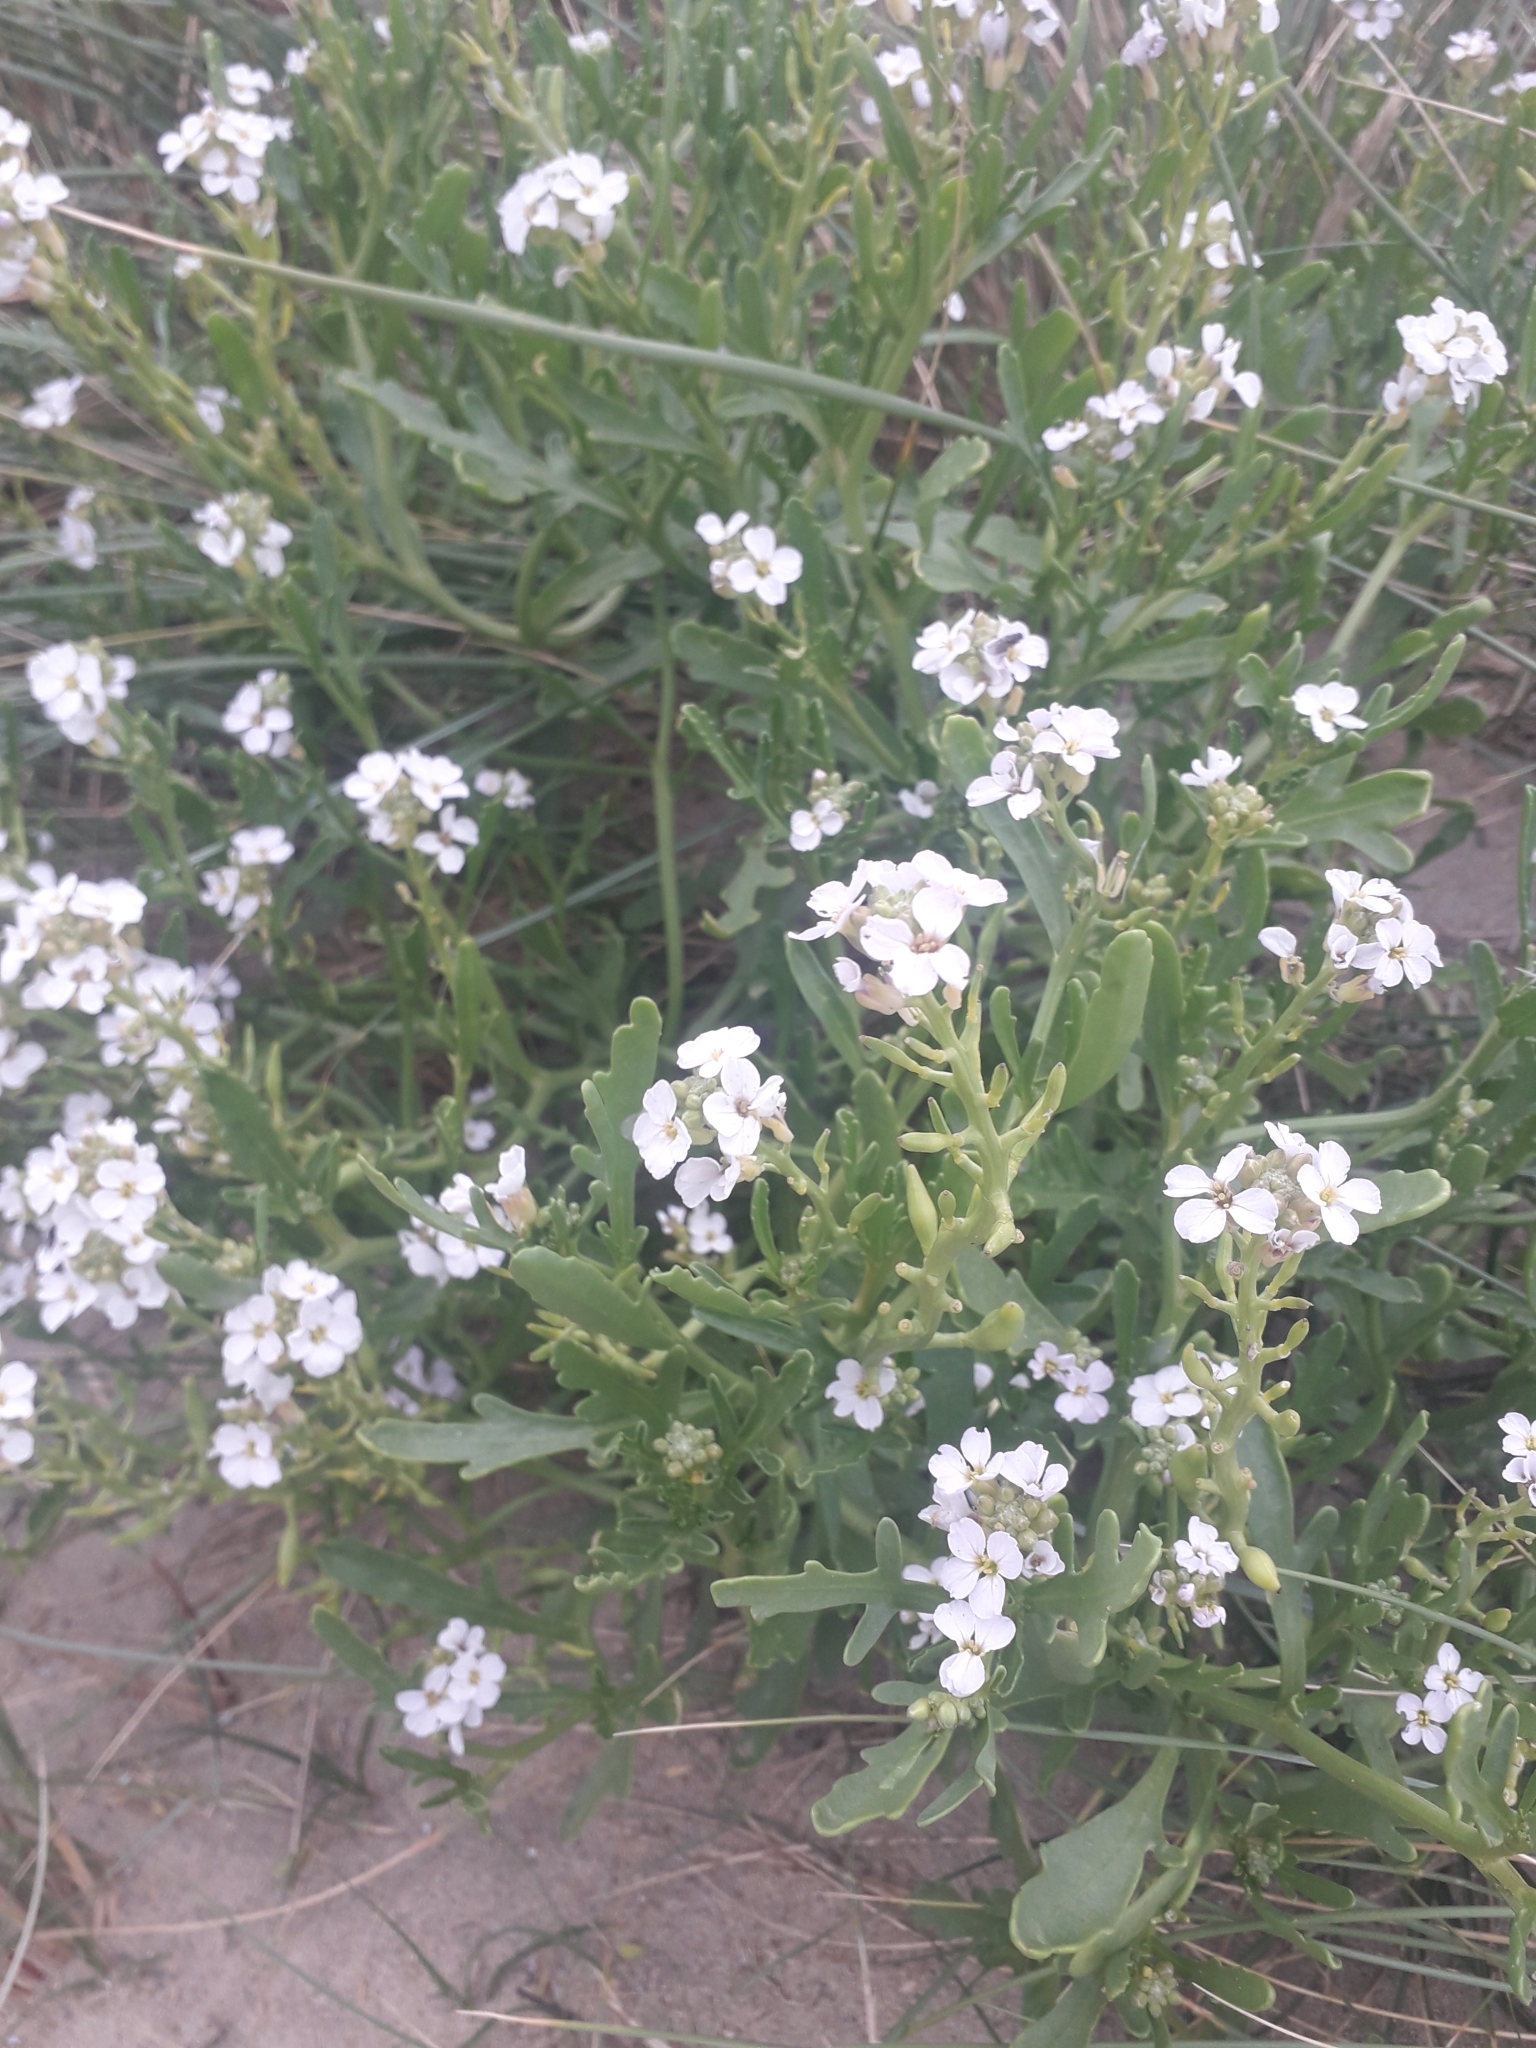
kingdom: Plantae
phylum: Tracheophyta
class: Magnoliopsida
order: Brassicales
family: Brassicaceae
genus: Cakile
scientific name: Cakile maritima
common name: Sea rocket
